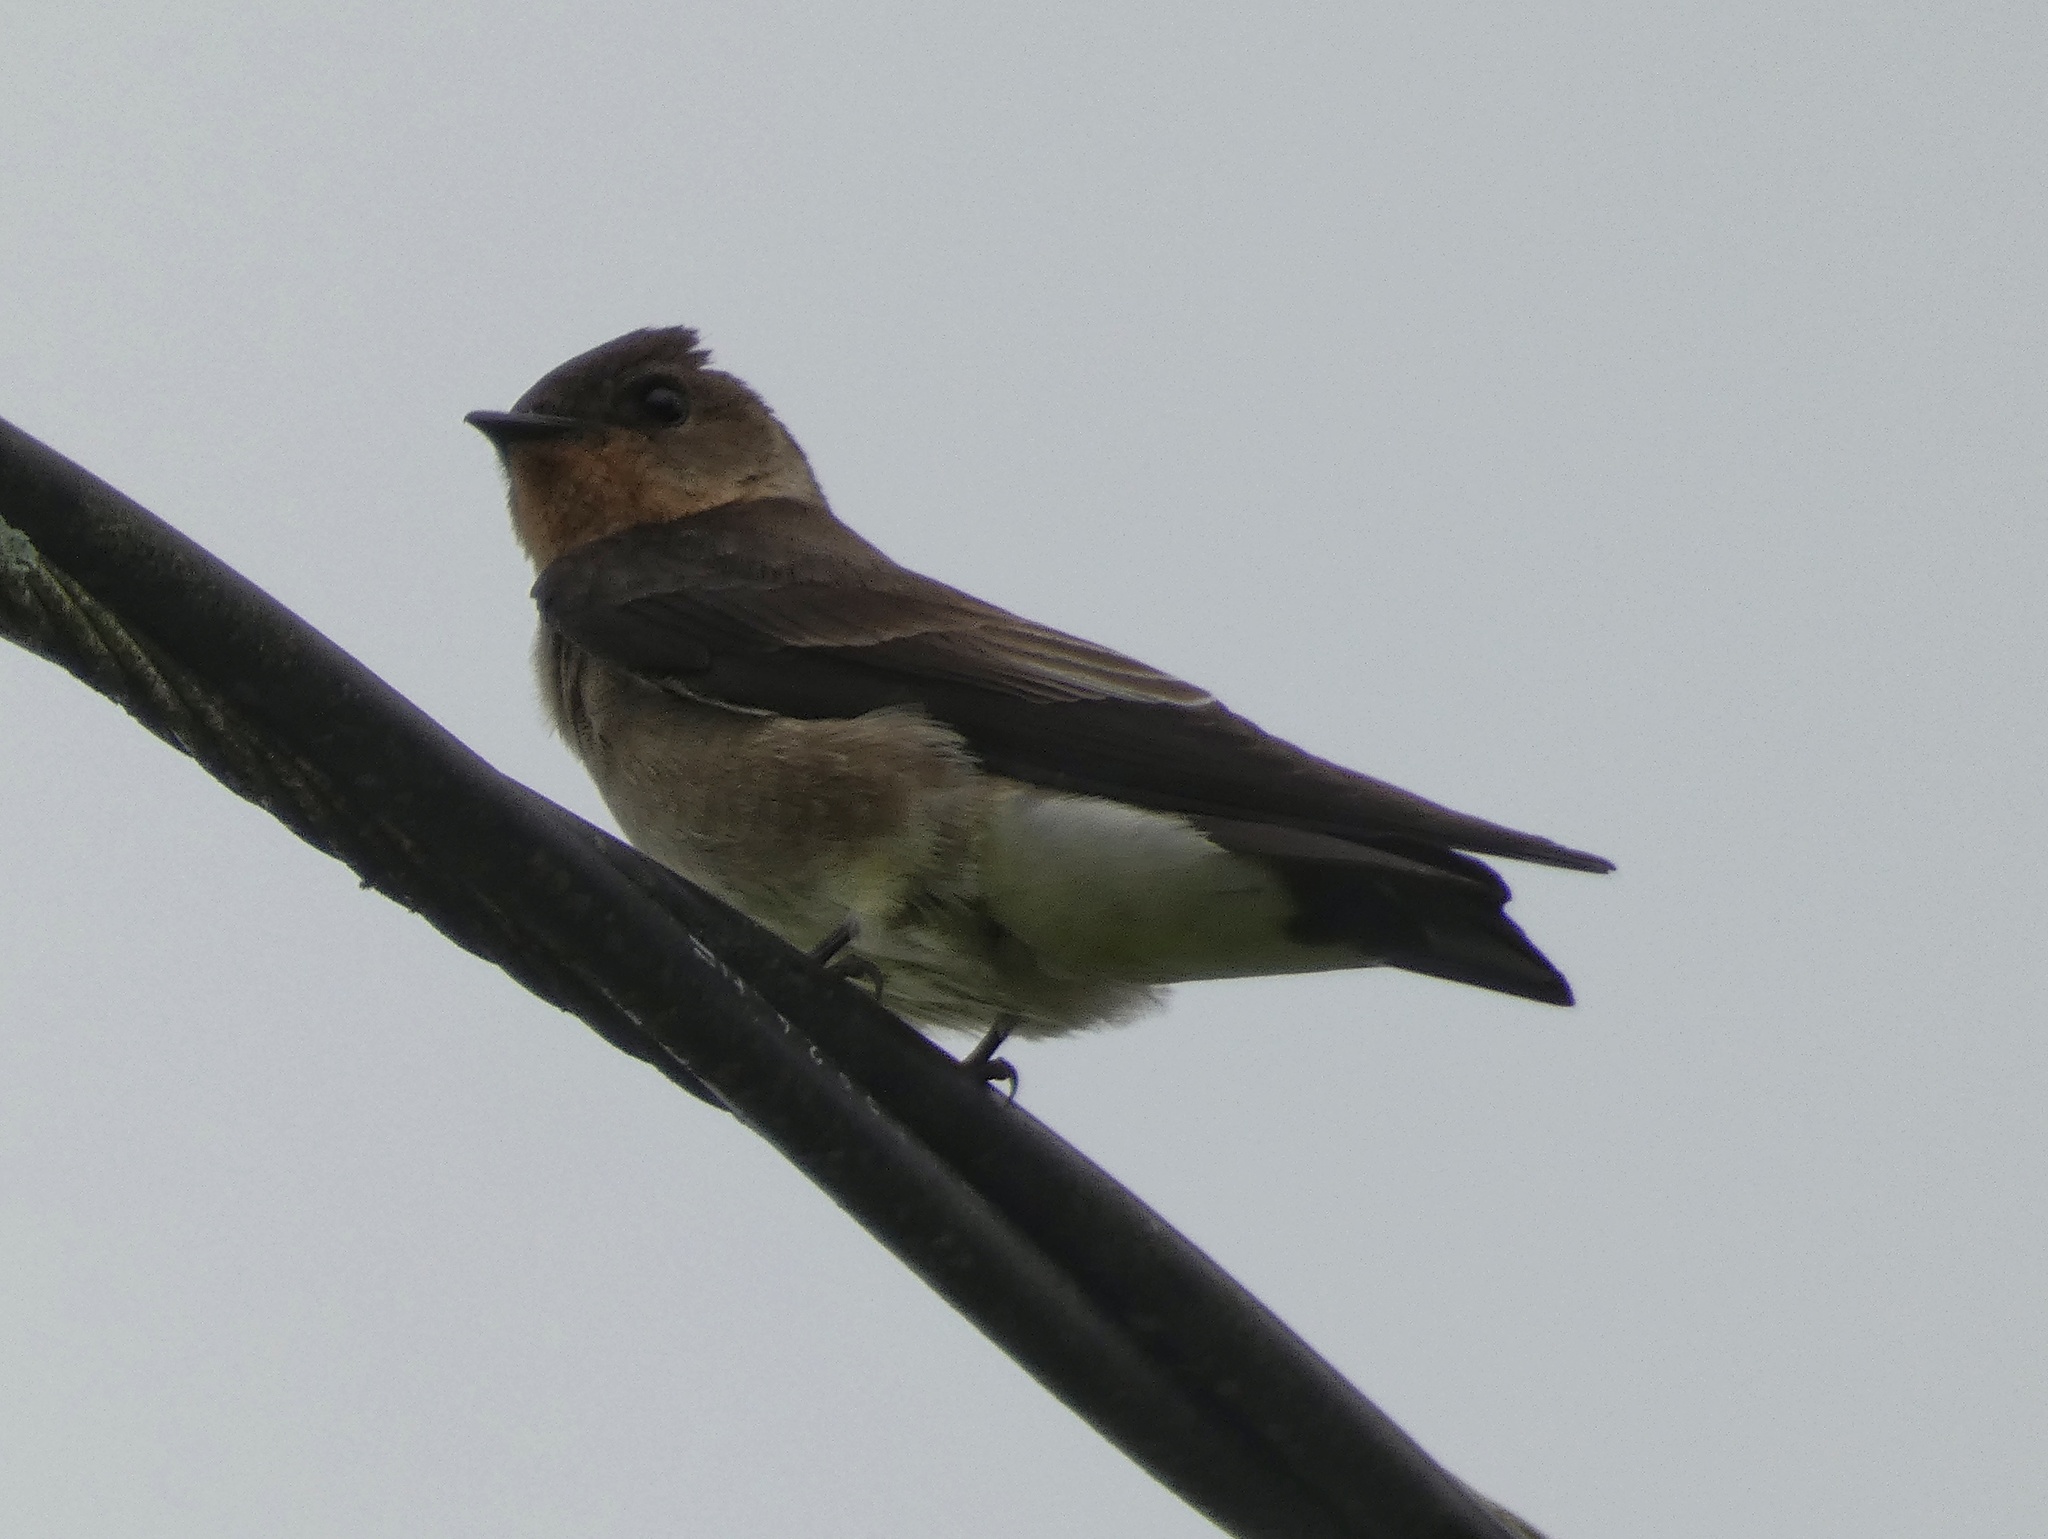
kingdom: Animalia
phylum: Chordata
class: Aves
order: Passeriformes
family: Hirundinidae
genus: Stelgidopteryx
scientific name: Stelgidopteryx ruficollis
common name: Southern rough-winged swallow
